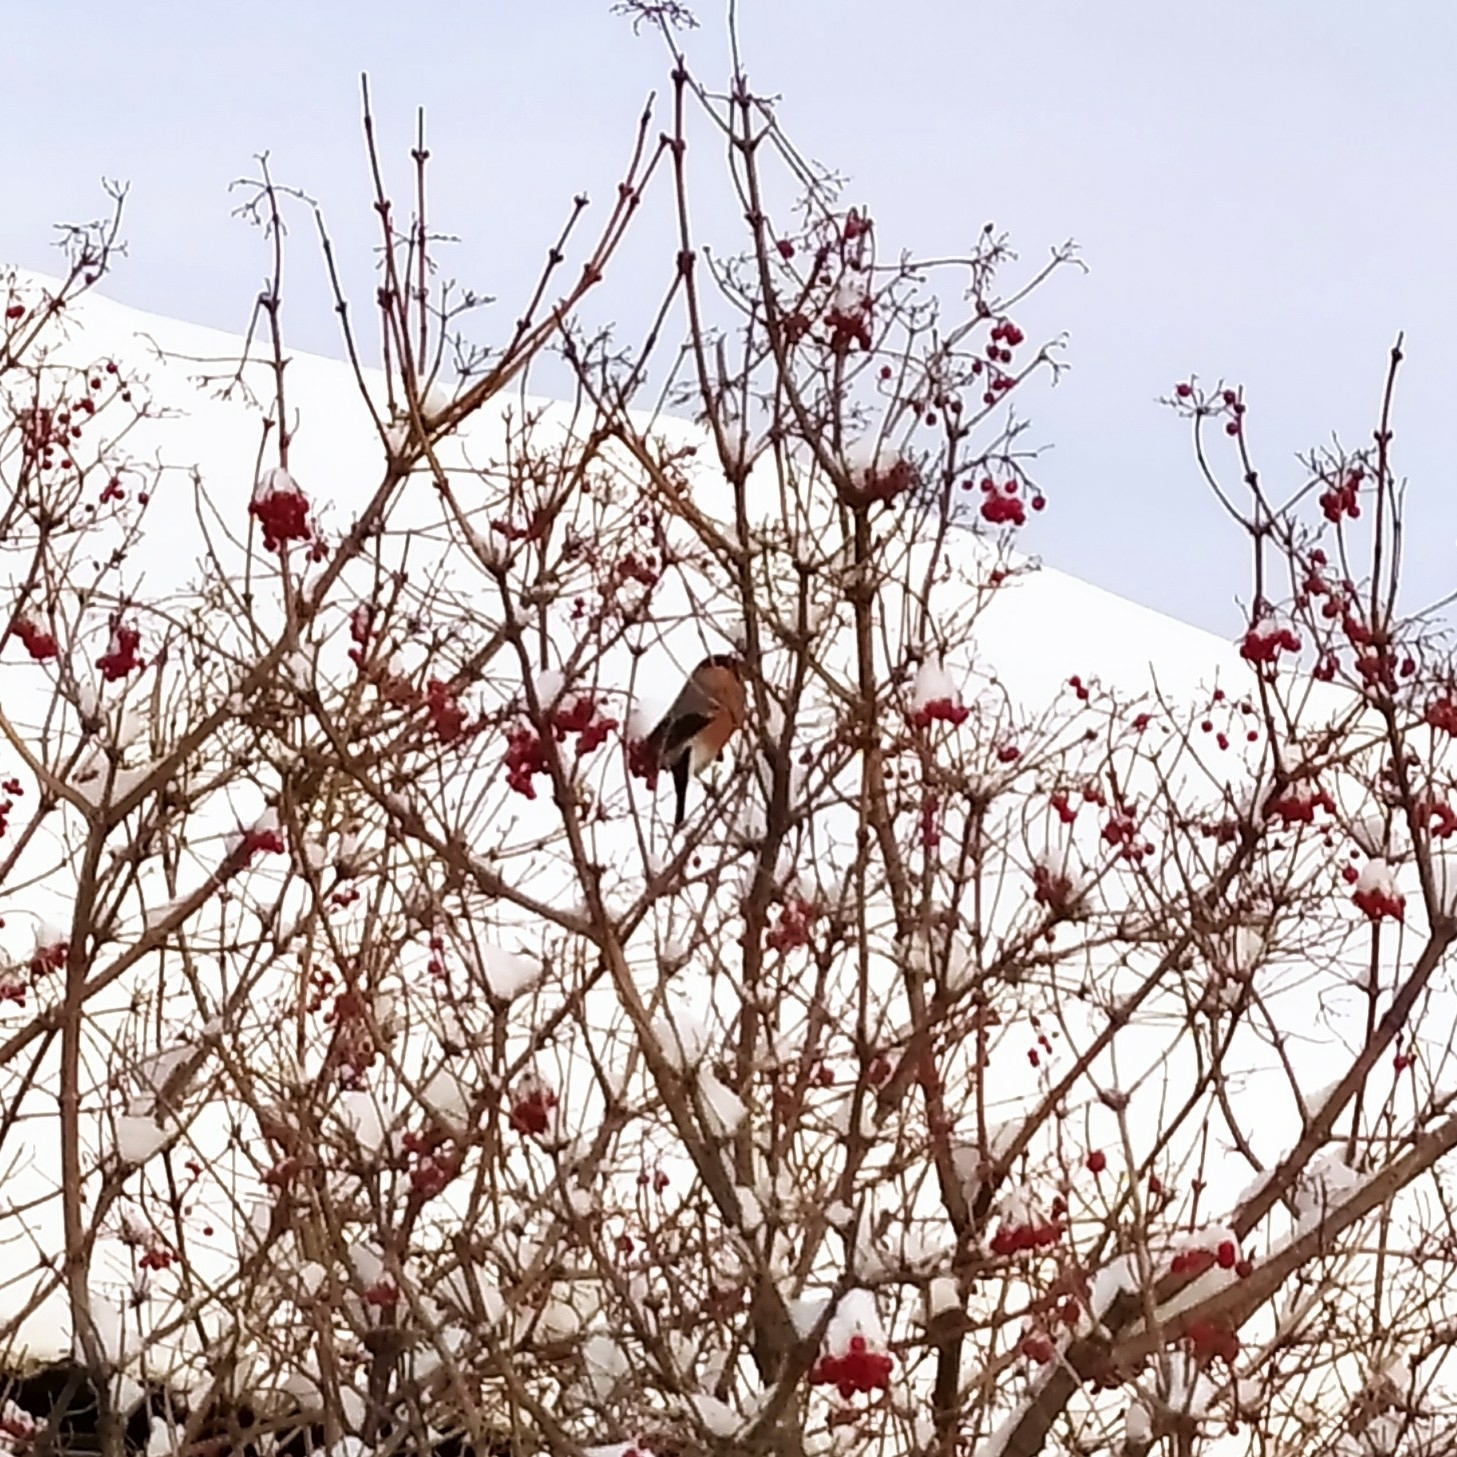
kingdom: Animalia
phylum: Chordata
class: Aves
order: Passeriformes
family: Fringillidae
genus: Pyrrhula
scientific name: Pyrrhula pyrrhula
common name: Eurasian bullfinch
